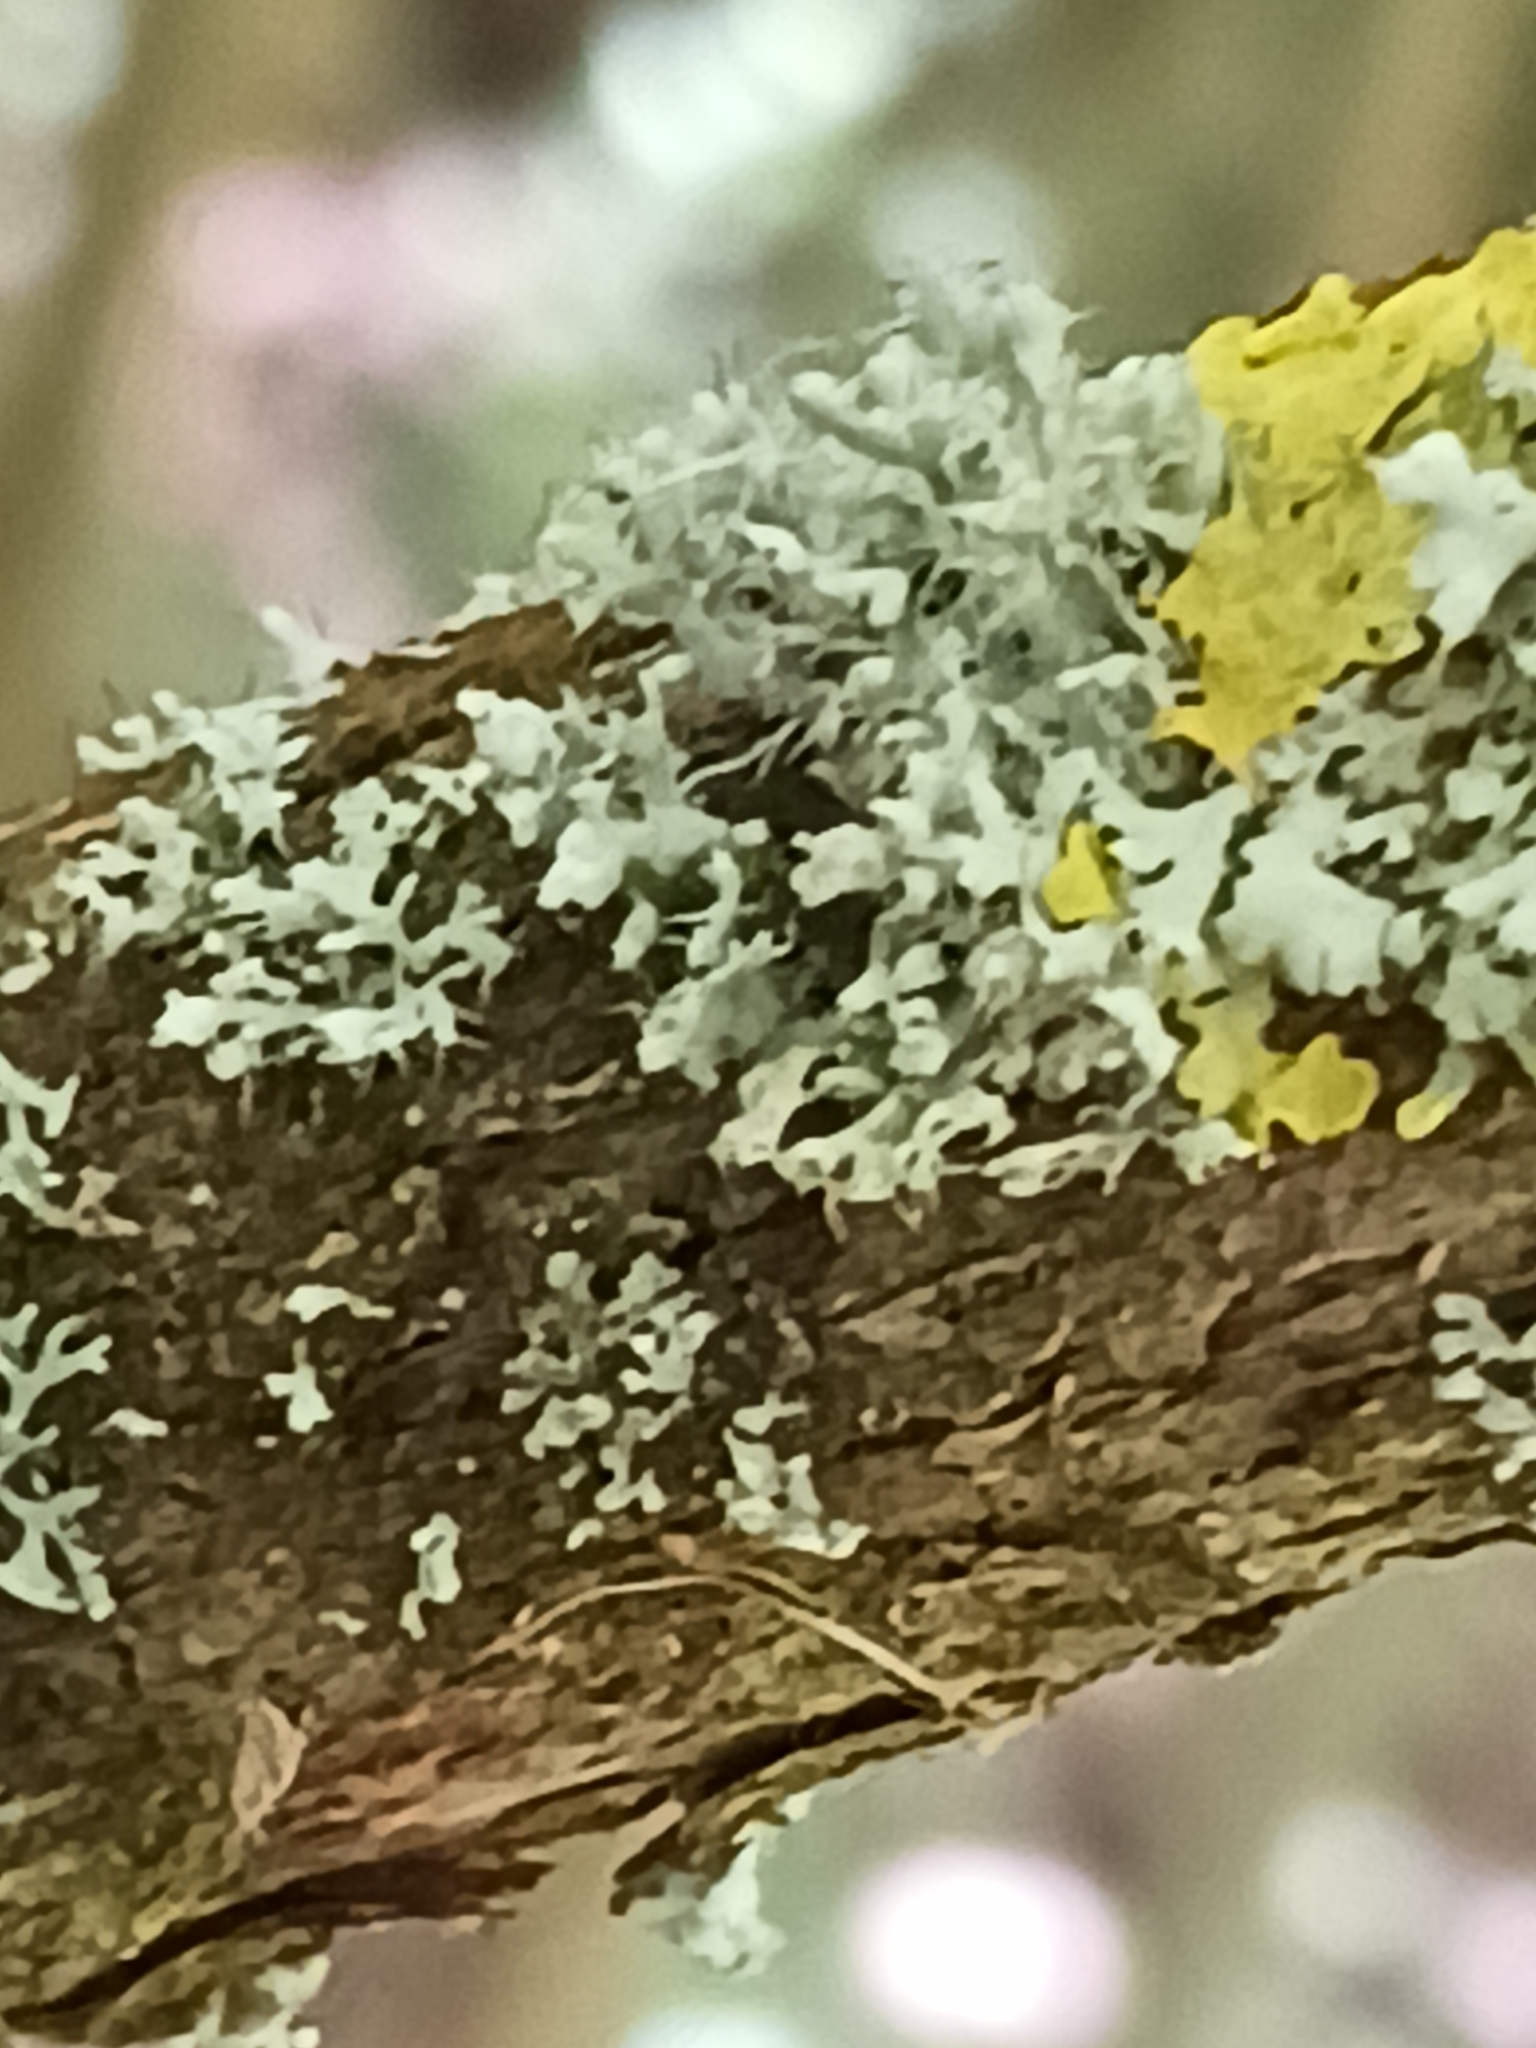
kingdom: Fungi
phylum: Ascomycota
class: Lecanoromycetes
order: Caliciales
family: Physciaceae
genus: Physcia
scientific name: Physcia adscendens
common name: Hooded rosette lichen
